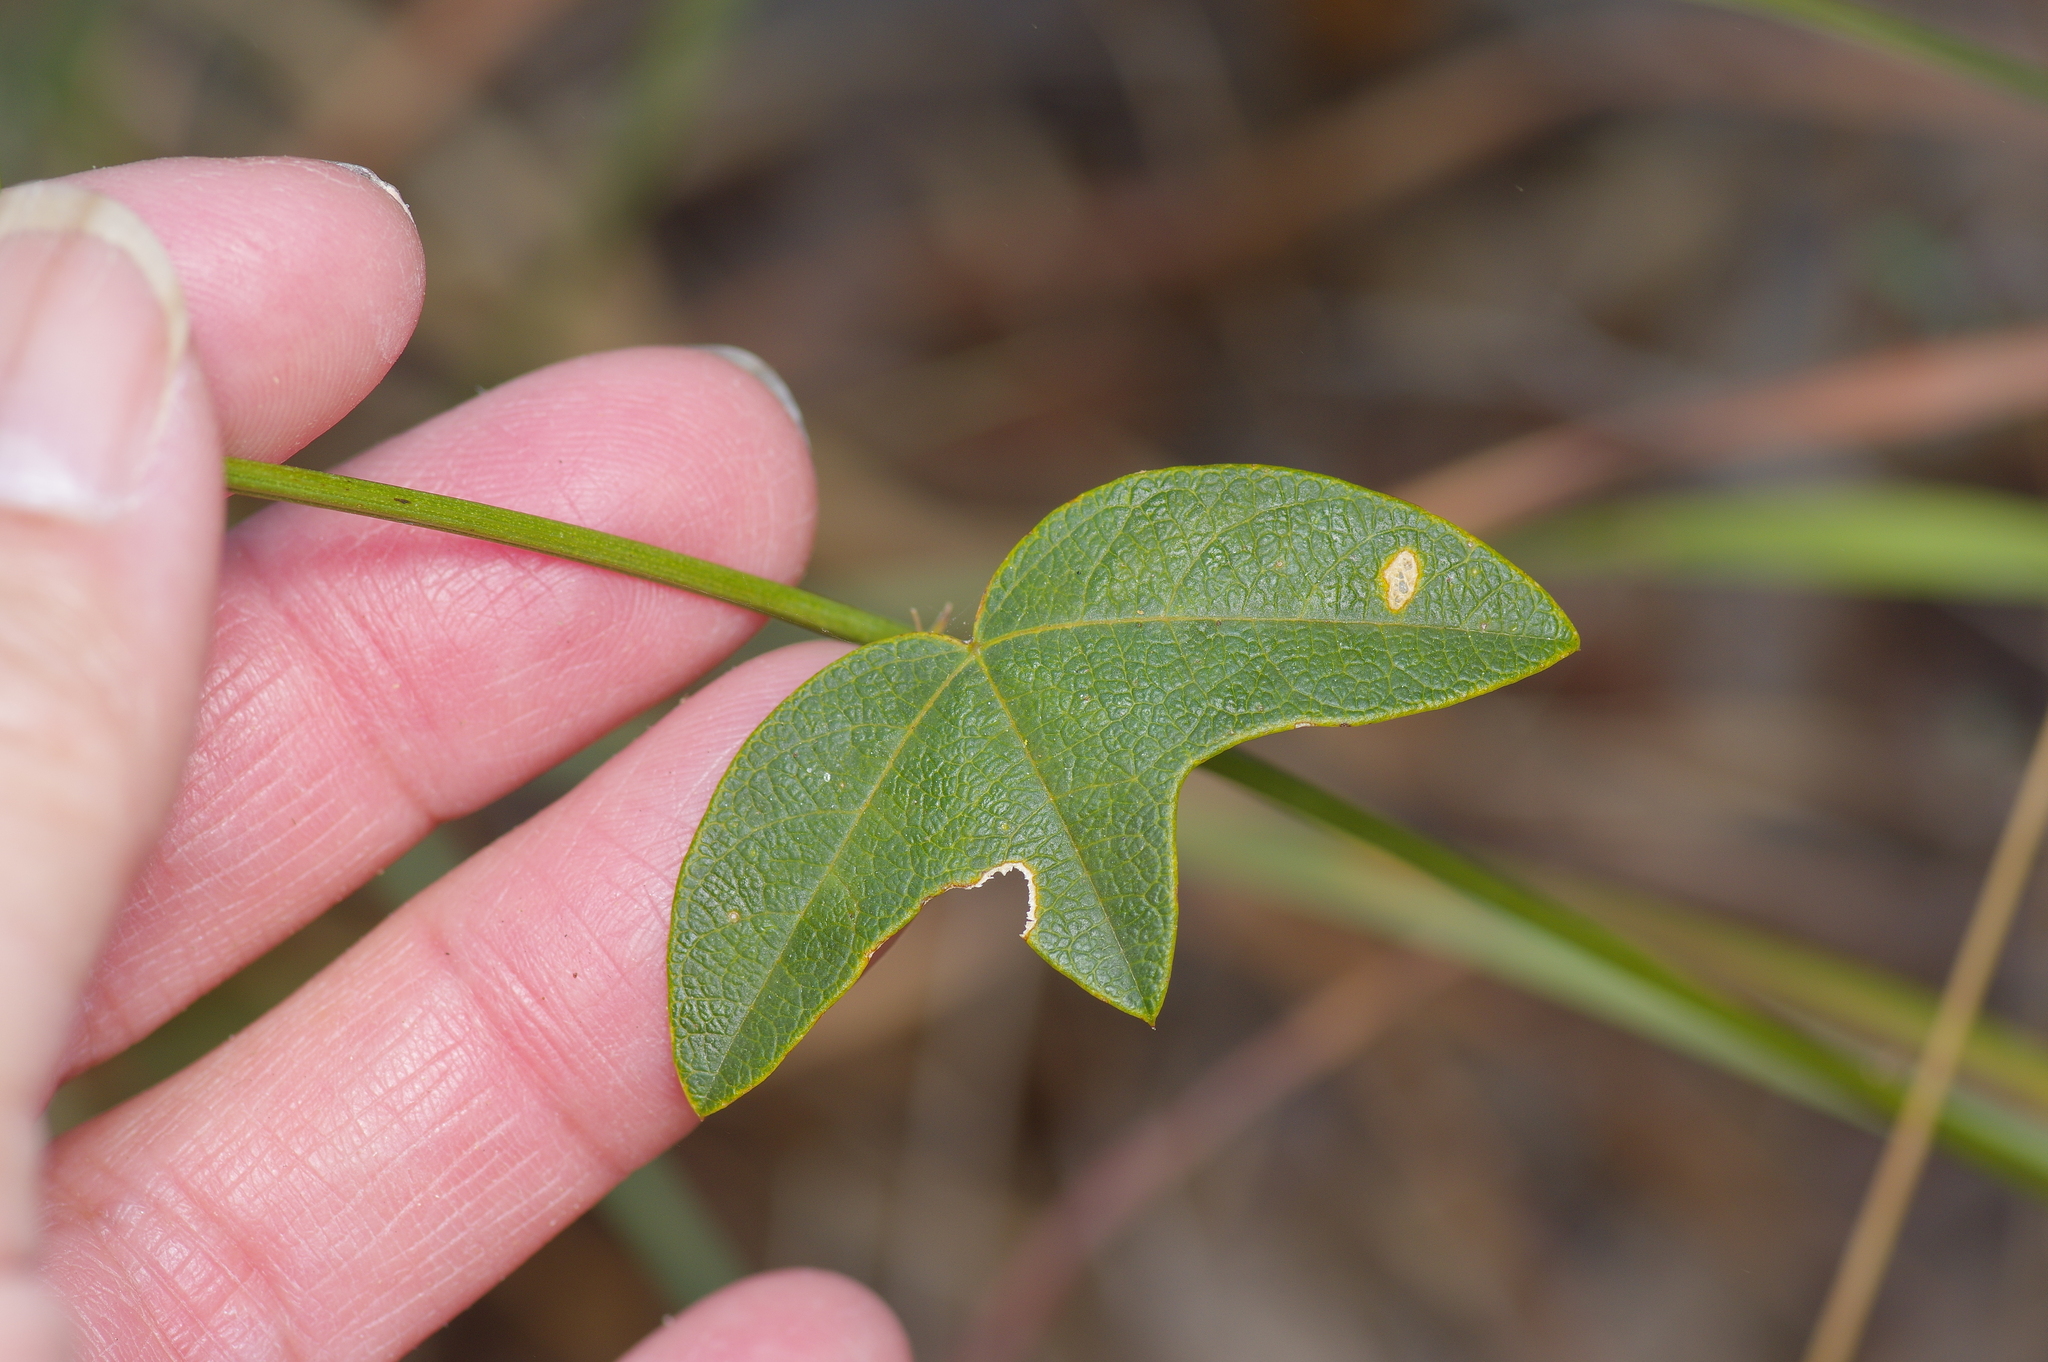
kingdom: Plantae
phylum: Tracheophyta
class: Magnoliopsida
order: Malpighiales
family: Passifloraceae
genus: Passiflora
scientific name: Passiflora tenuiloba
